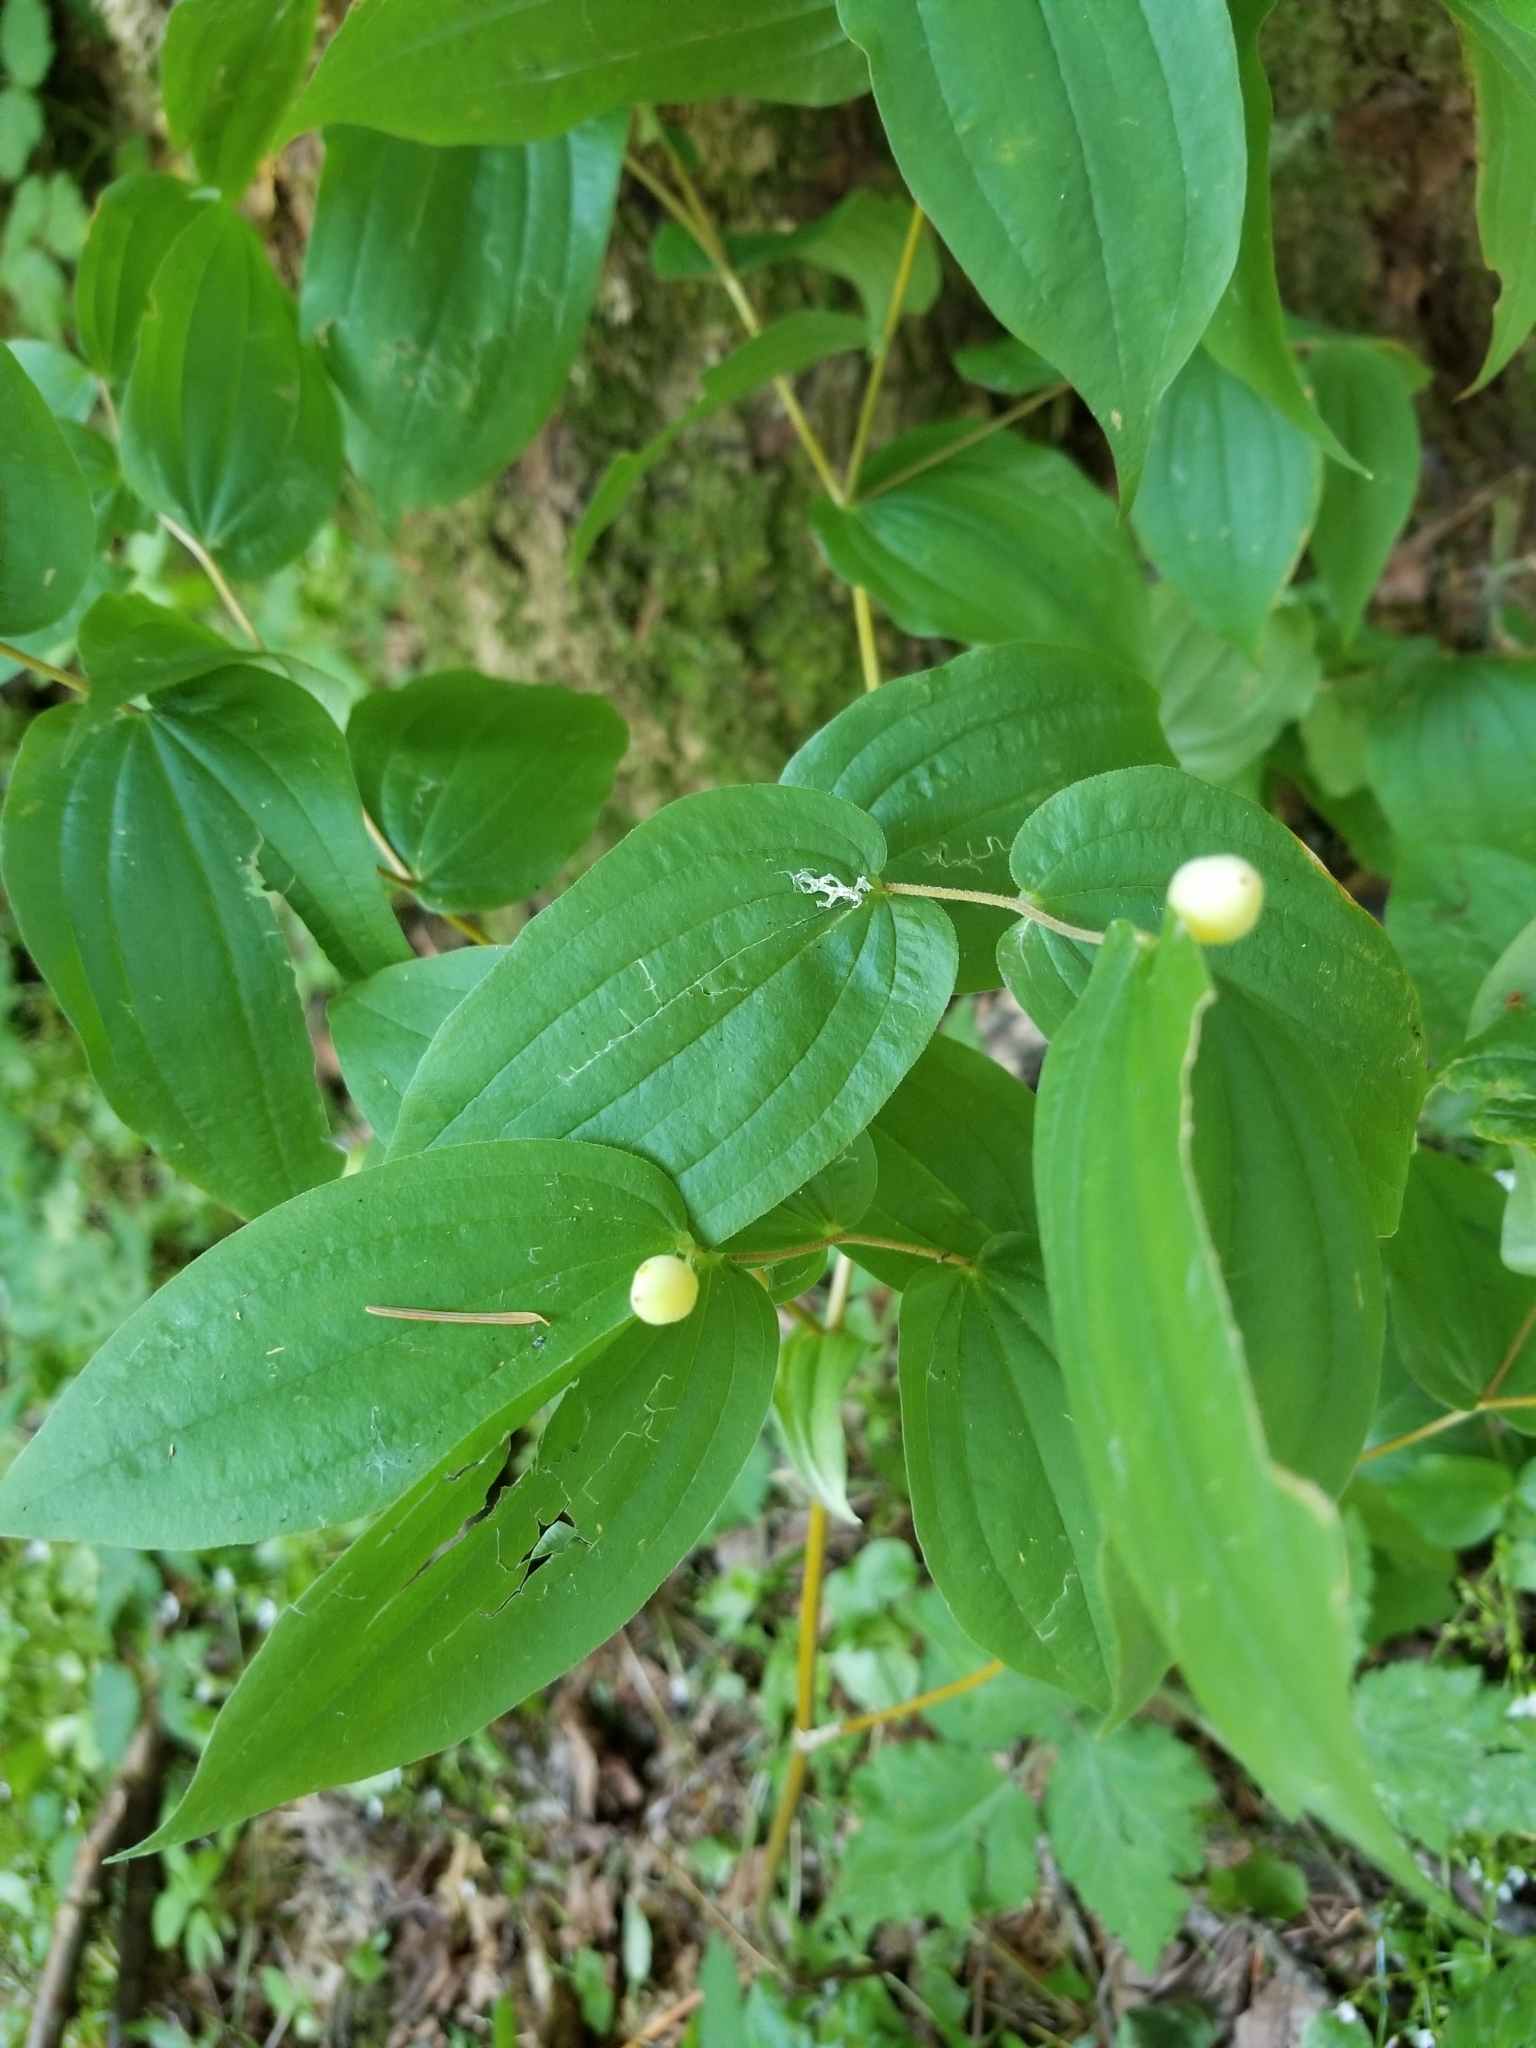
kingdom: Plantae
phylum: Tracheophyta
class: Liliopsida
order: Liliales
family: Liliaceae
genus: Prosartes
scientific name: Prosartes hookeri
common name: Fairy-bells
